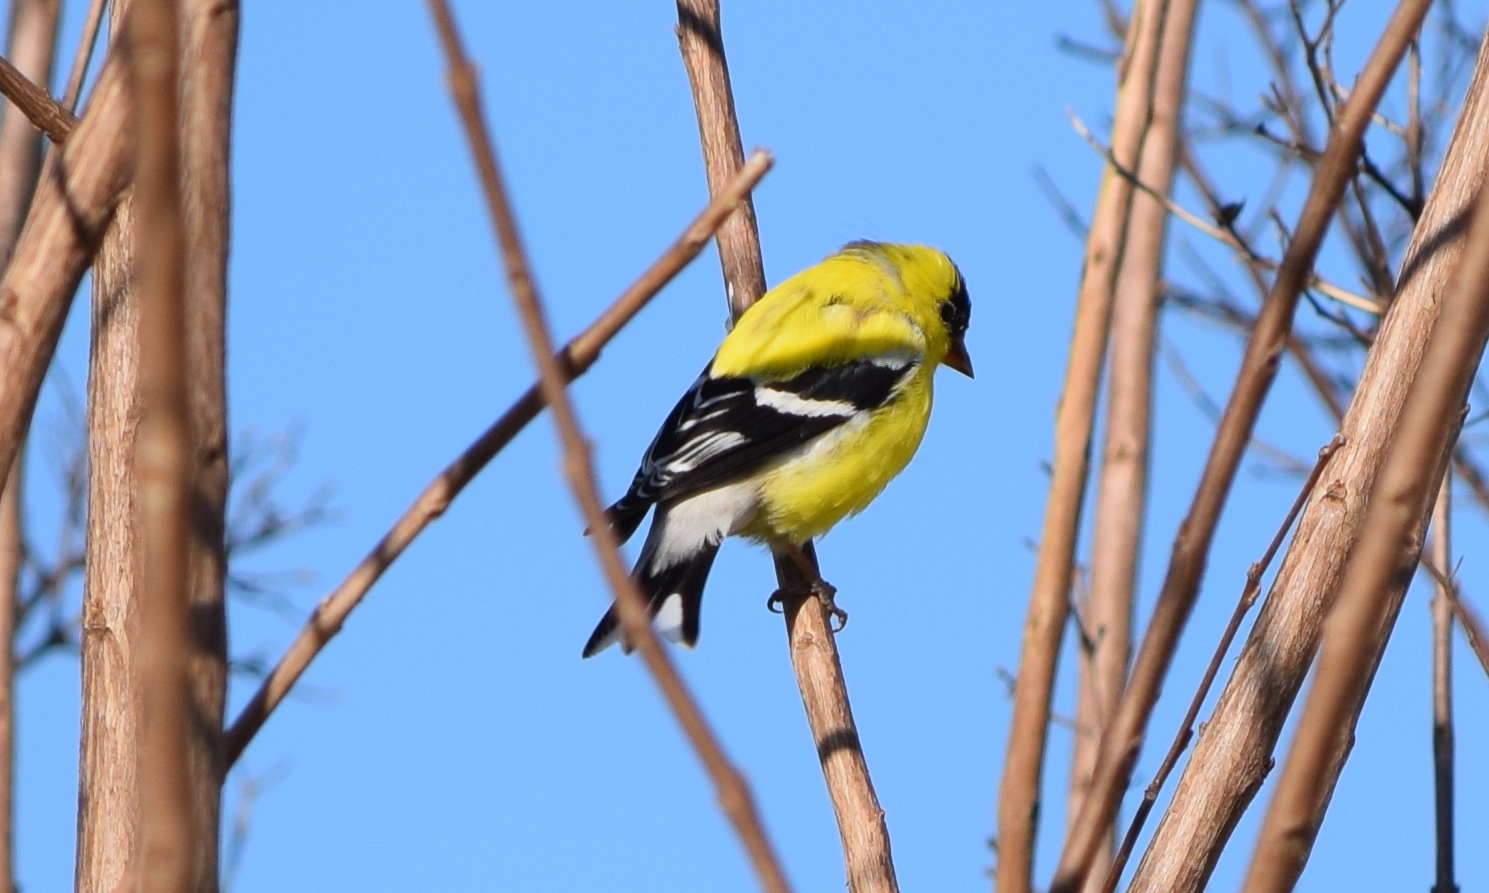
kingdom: Animalia
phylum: Chordata
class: Aves
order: Passeriformes
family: Fringillidae
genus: Spinus
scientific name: Spinus tristis
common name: American goldfinch
